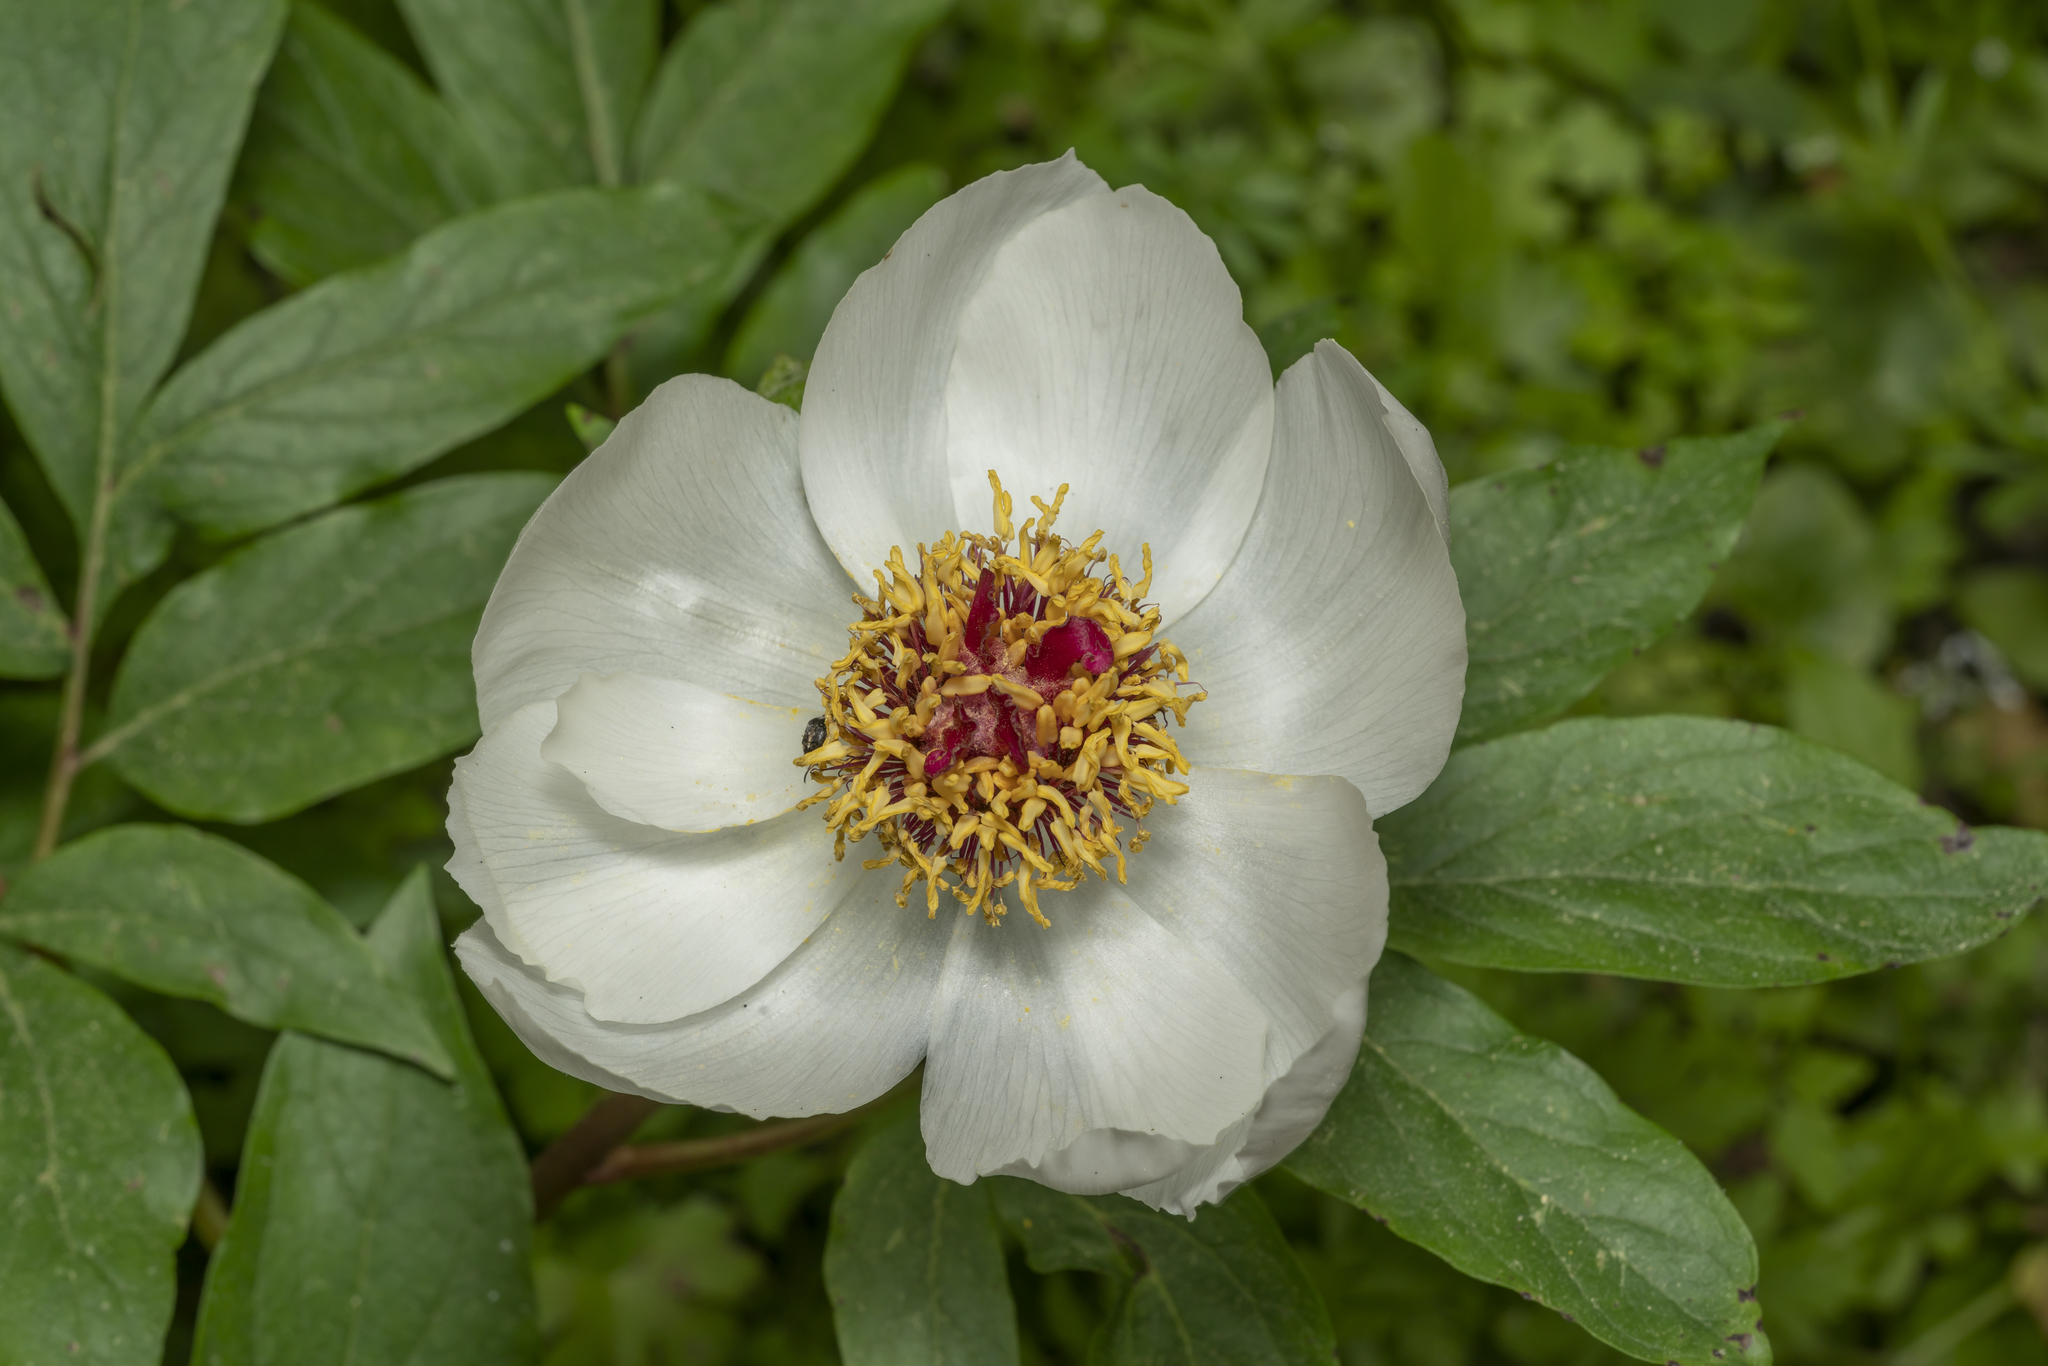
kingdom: Plantae
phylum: Tracheophyta
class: Magnoliopsida
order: Saxifragales
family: Paeoniaceae
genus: Paeonia
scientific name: Paeonia clusii
